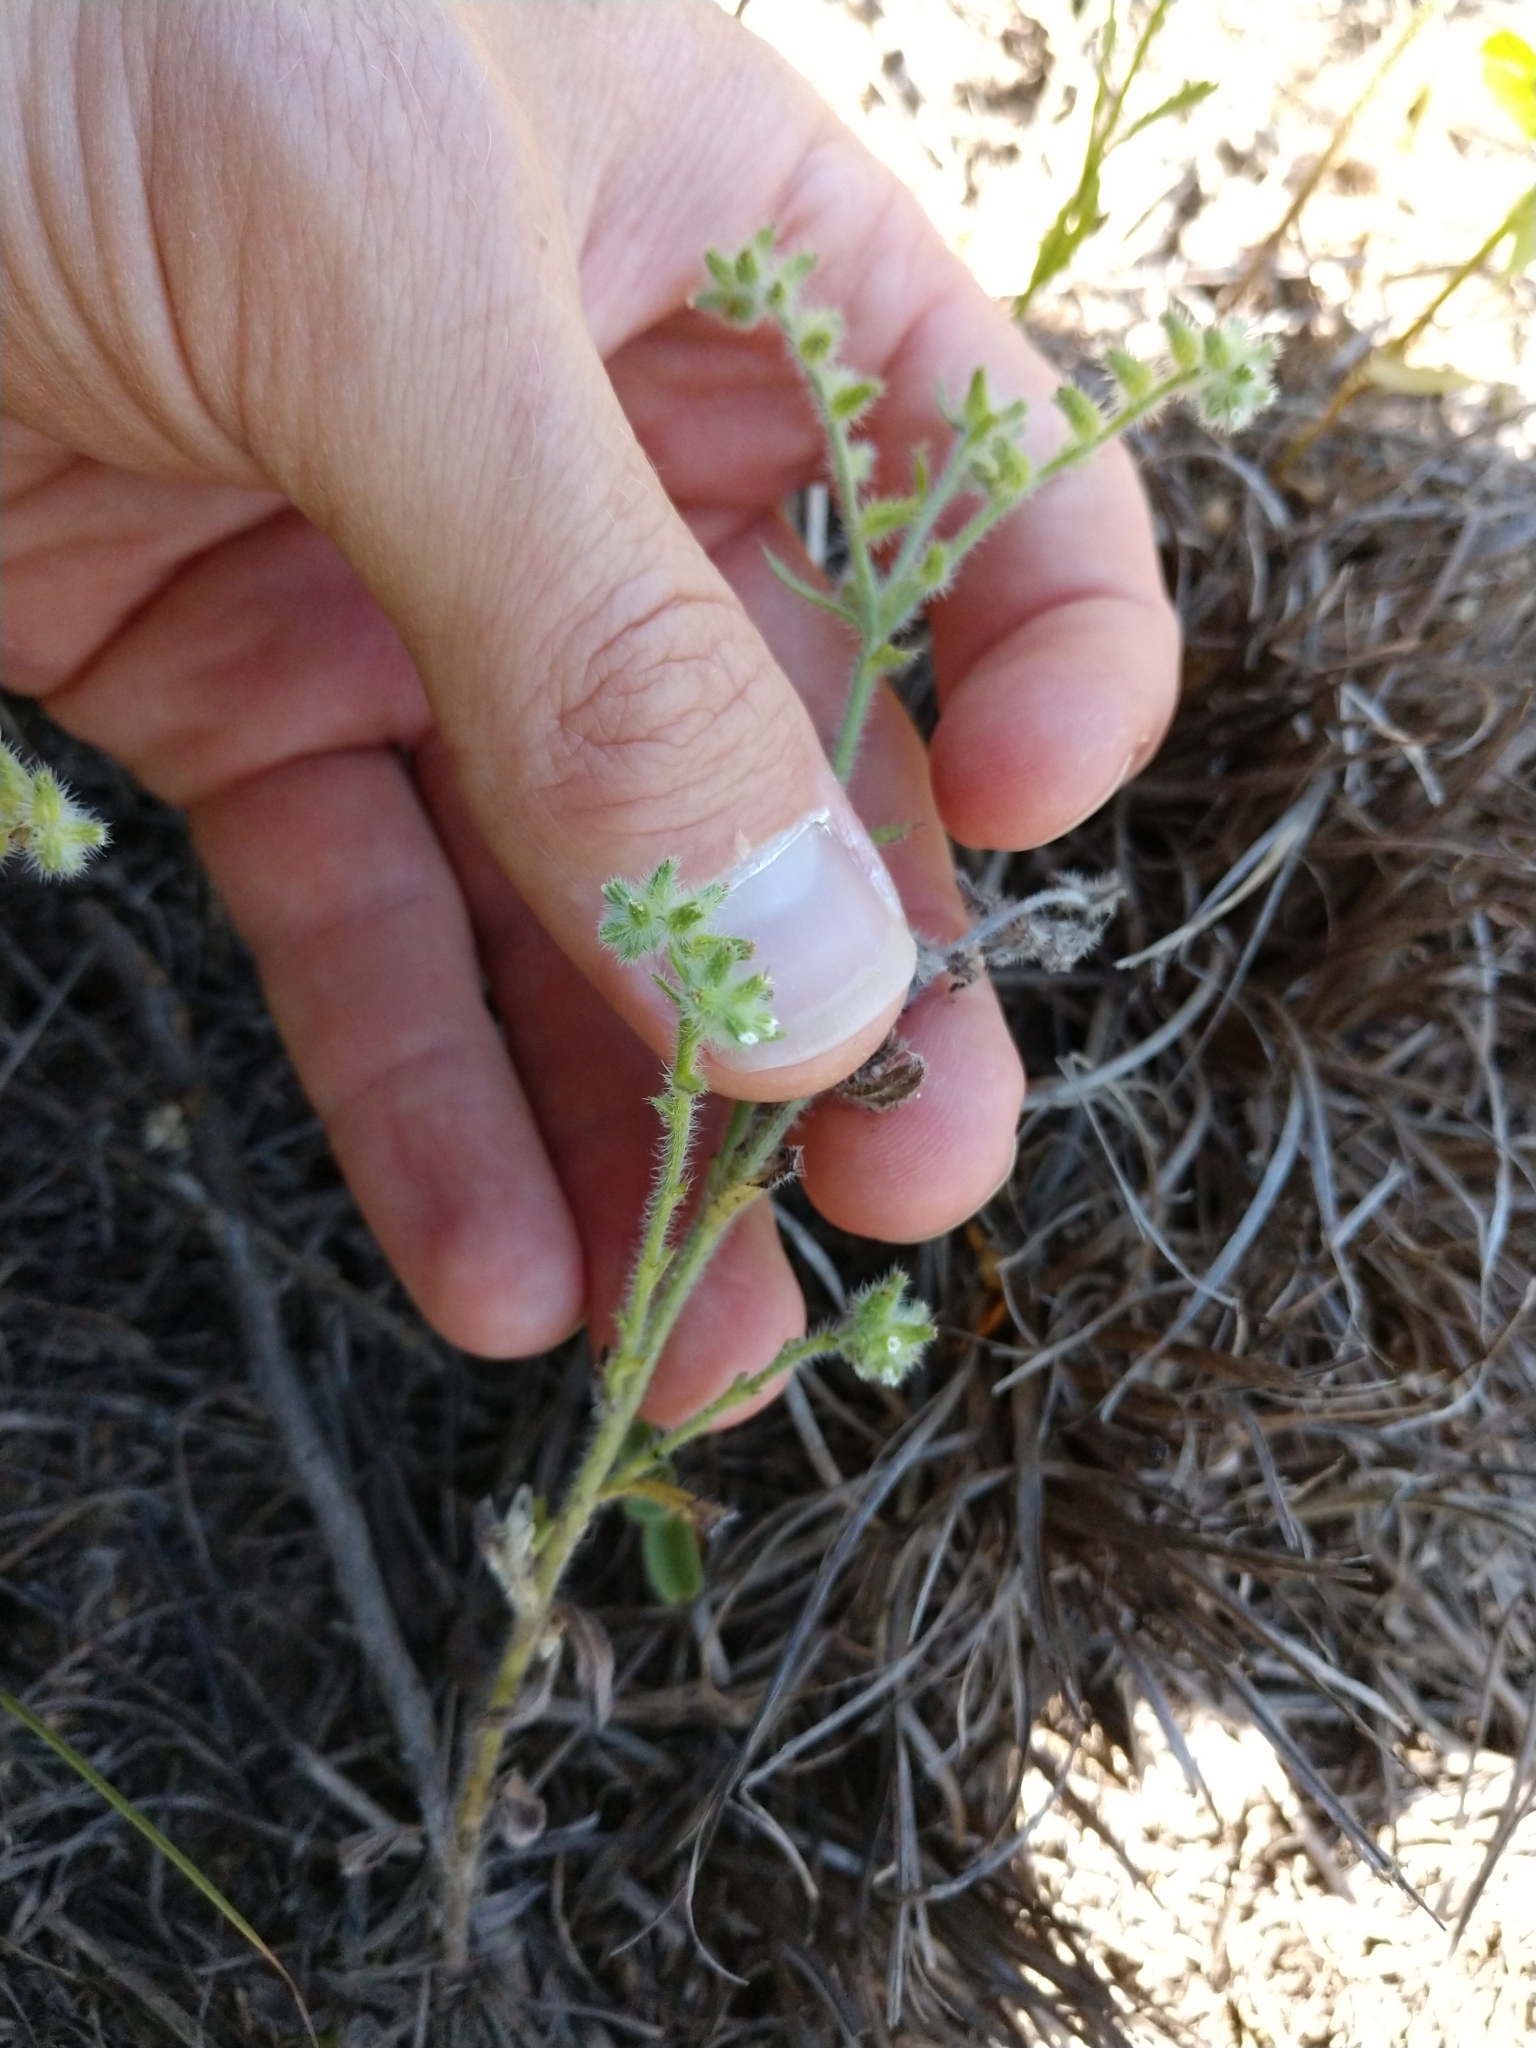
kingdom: Plantae
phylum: Tracheophyta
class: Magnoliopsida
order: Boraginales
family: Boraginaceae
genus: Cryptantha
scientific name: Cryptantha texana
